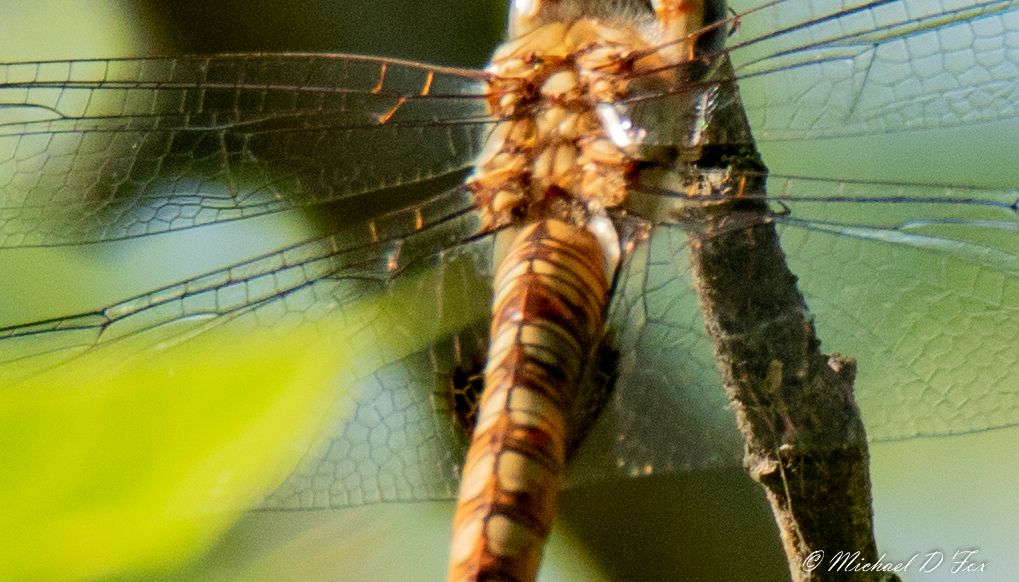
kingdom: Animalia
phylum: Arthropoda
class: Insecta
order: Odonata
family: Libellulidae
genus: Pantala
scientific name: Pantala hymenaea
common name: Spot-winged glider
